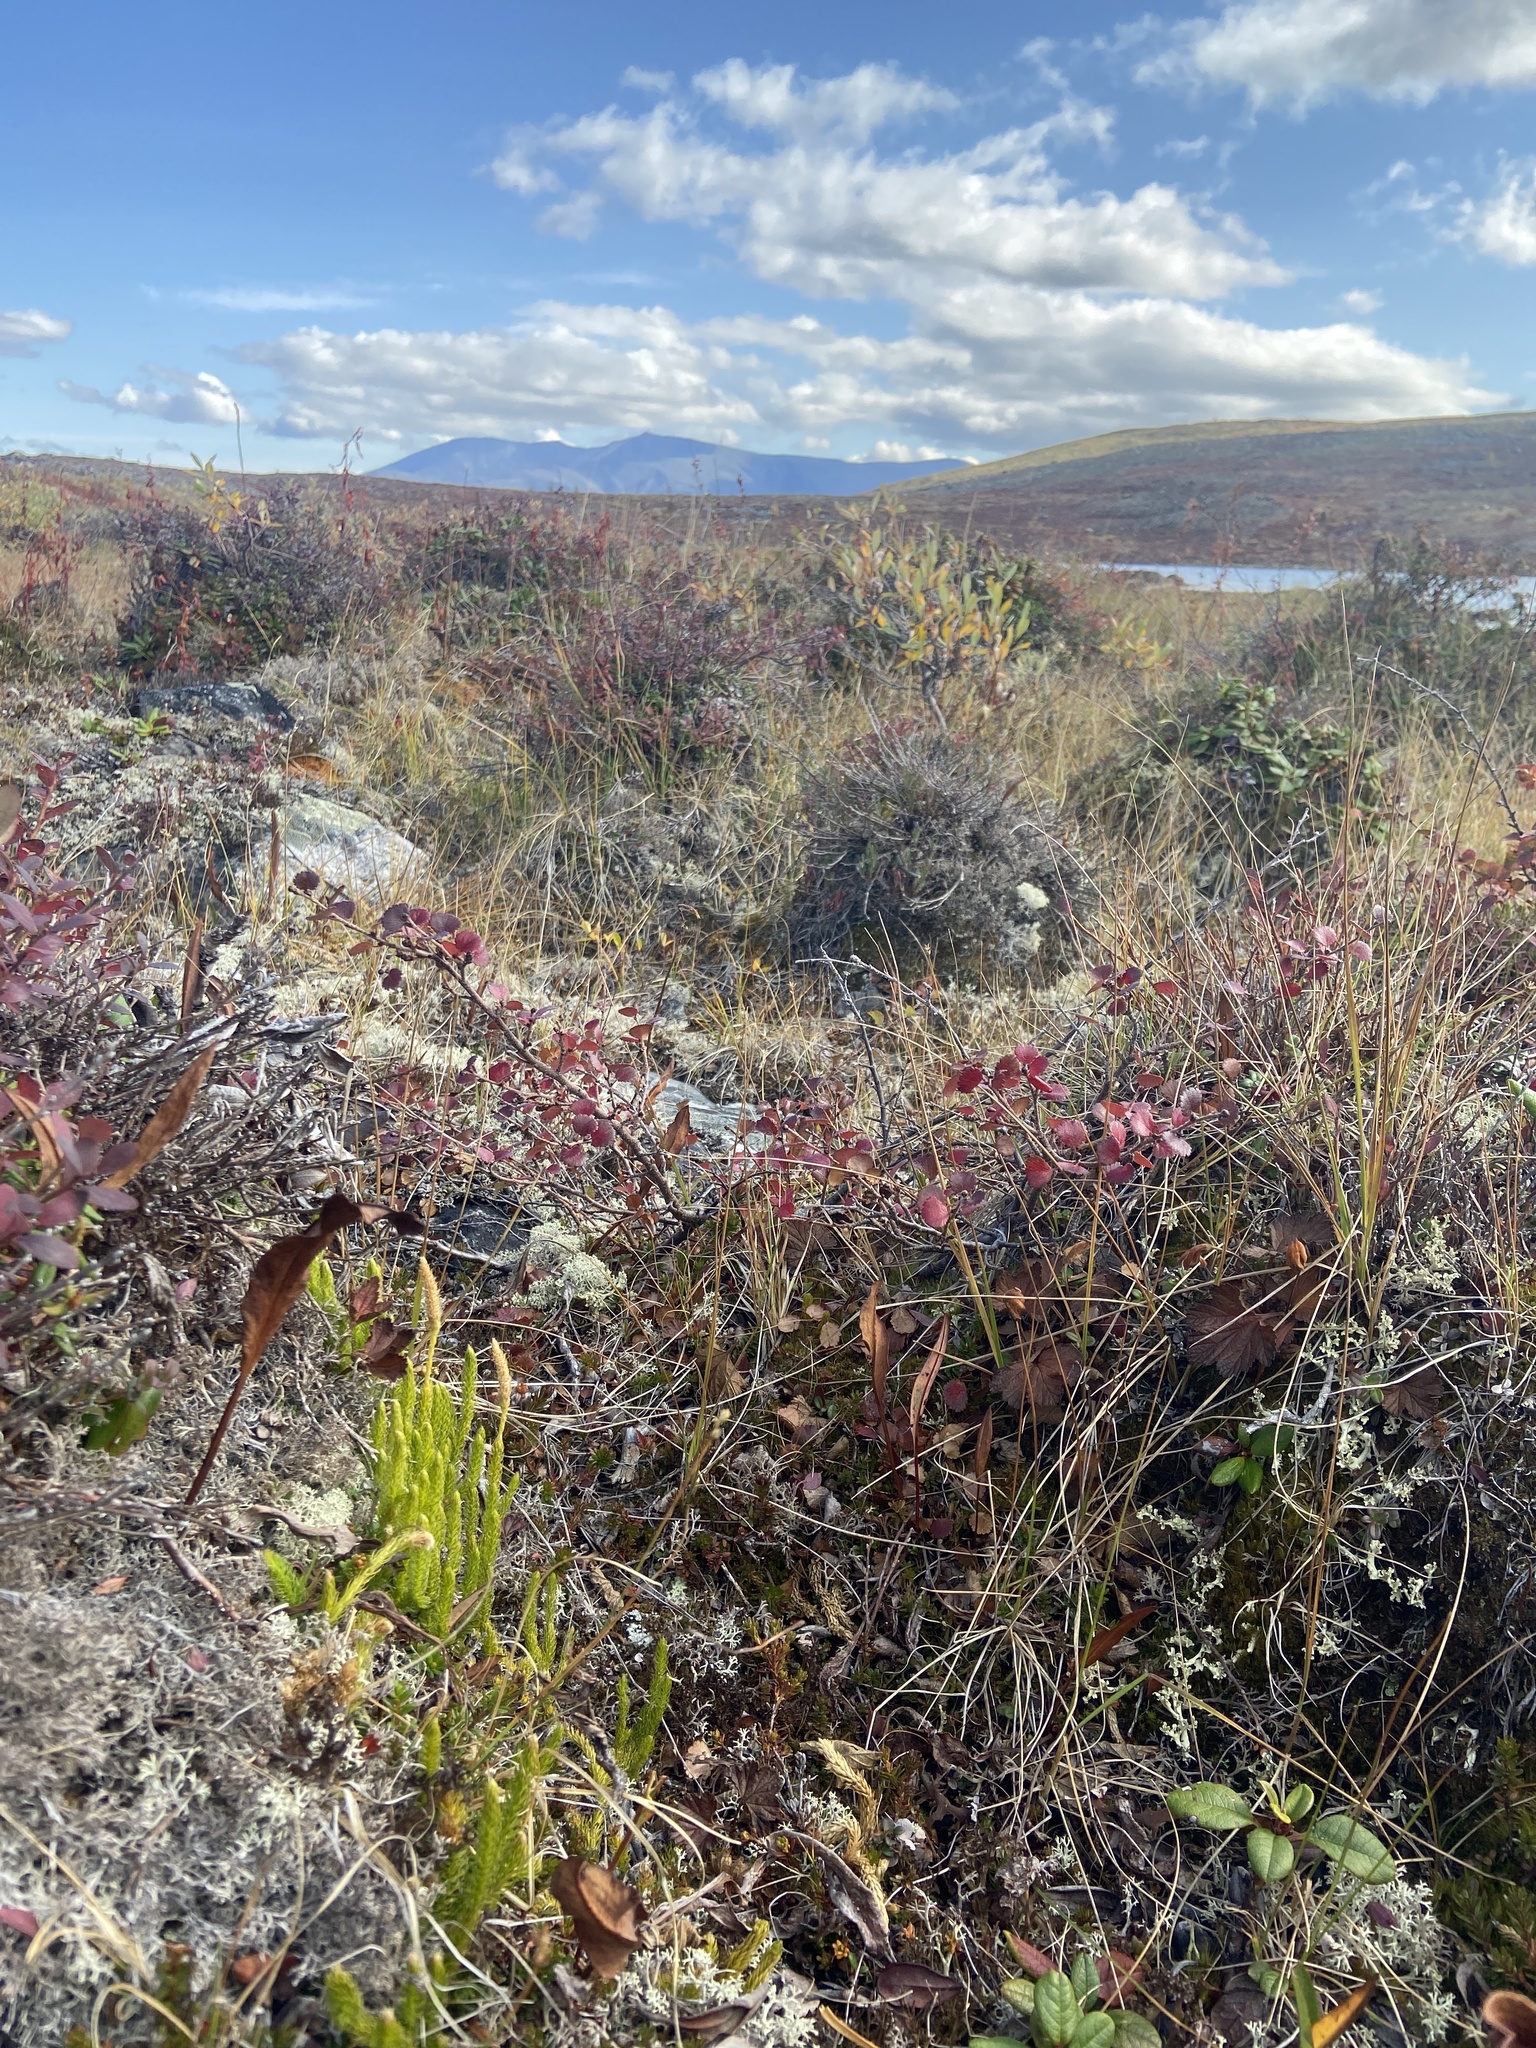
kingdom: Plantae
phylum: Tracheophyta
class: Lycopodiopsida
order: Lycopodiales
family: Lycopodiaceae
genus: Lycopodium
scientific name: Lycopodium lagopus
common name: One-cone clubmoss
